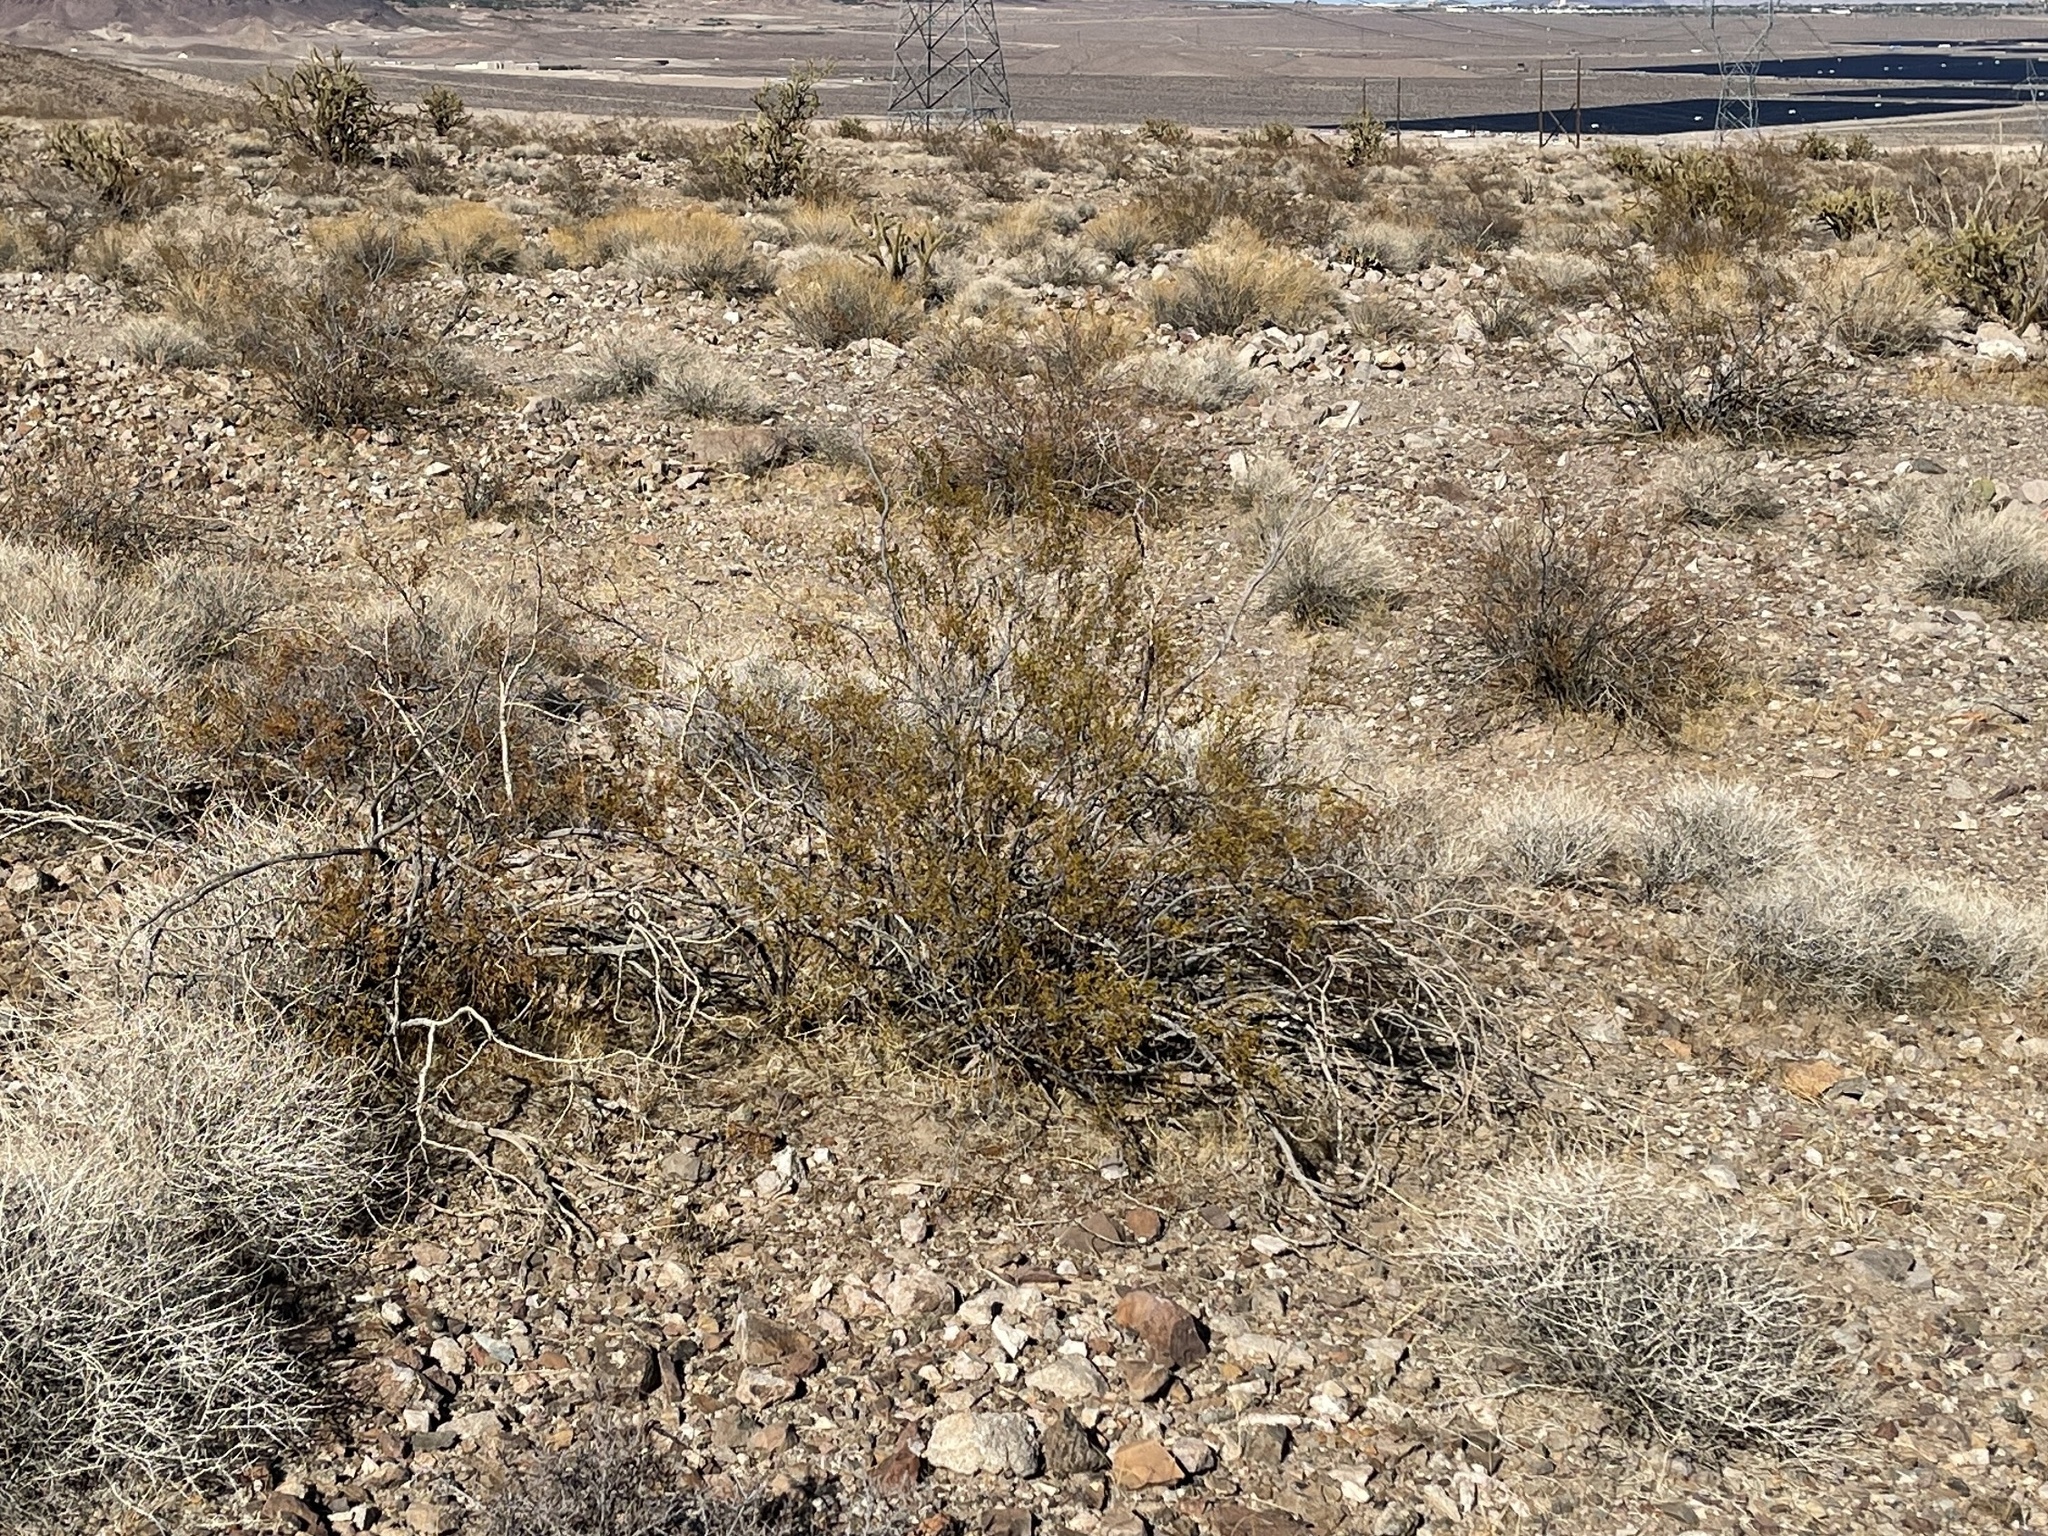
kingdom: Plantae
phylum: Tracheophyta
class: Magnoliopsida
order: Zygophyllales
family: Zygophyllaceae
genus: Larrea
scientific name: Larrea tridentata
